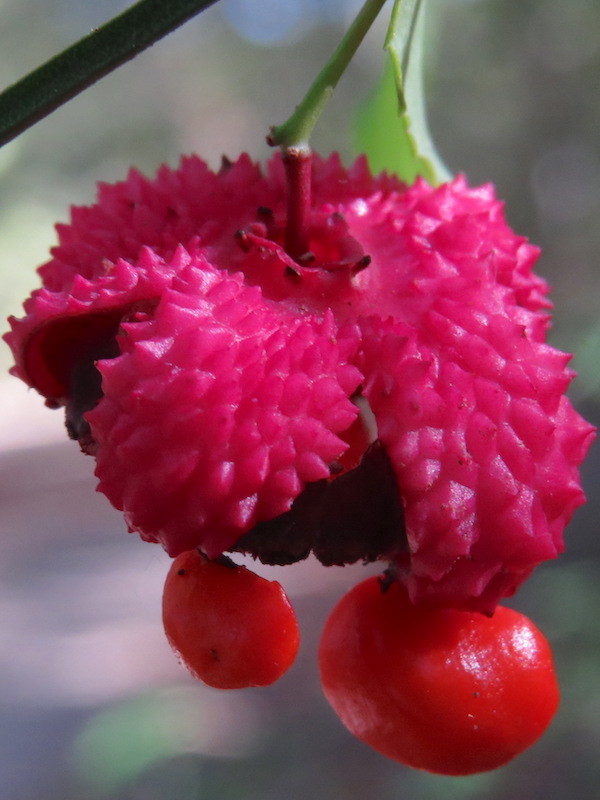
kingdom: Plantae
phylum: Tracheophyta
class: Magnoliopsida
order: Celastrales
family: Celastraceae
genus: Euonymus
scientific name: Euonymus americanus
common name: Bursting-heart
